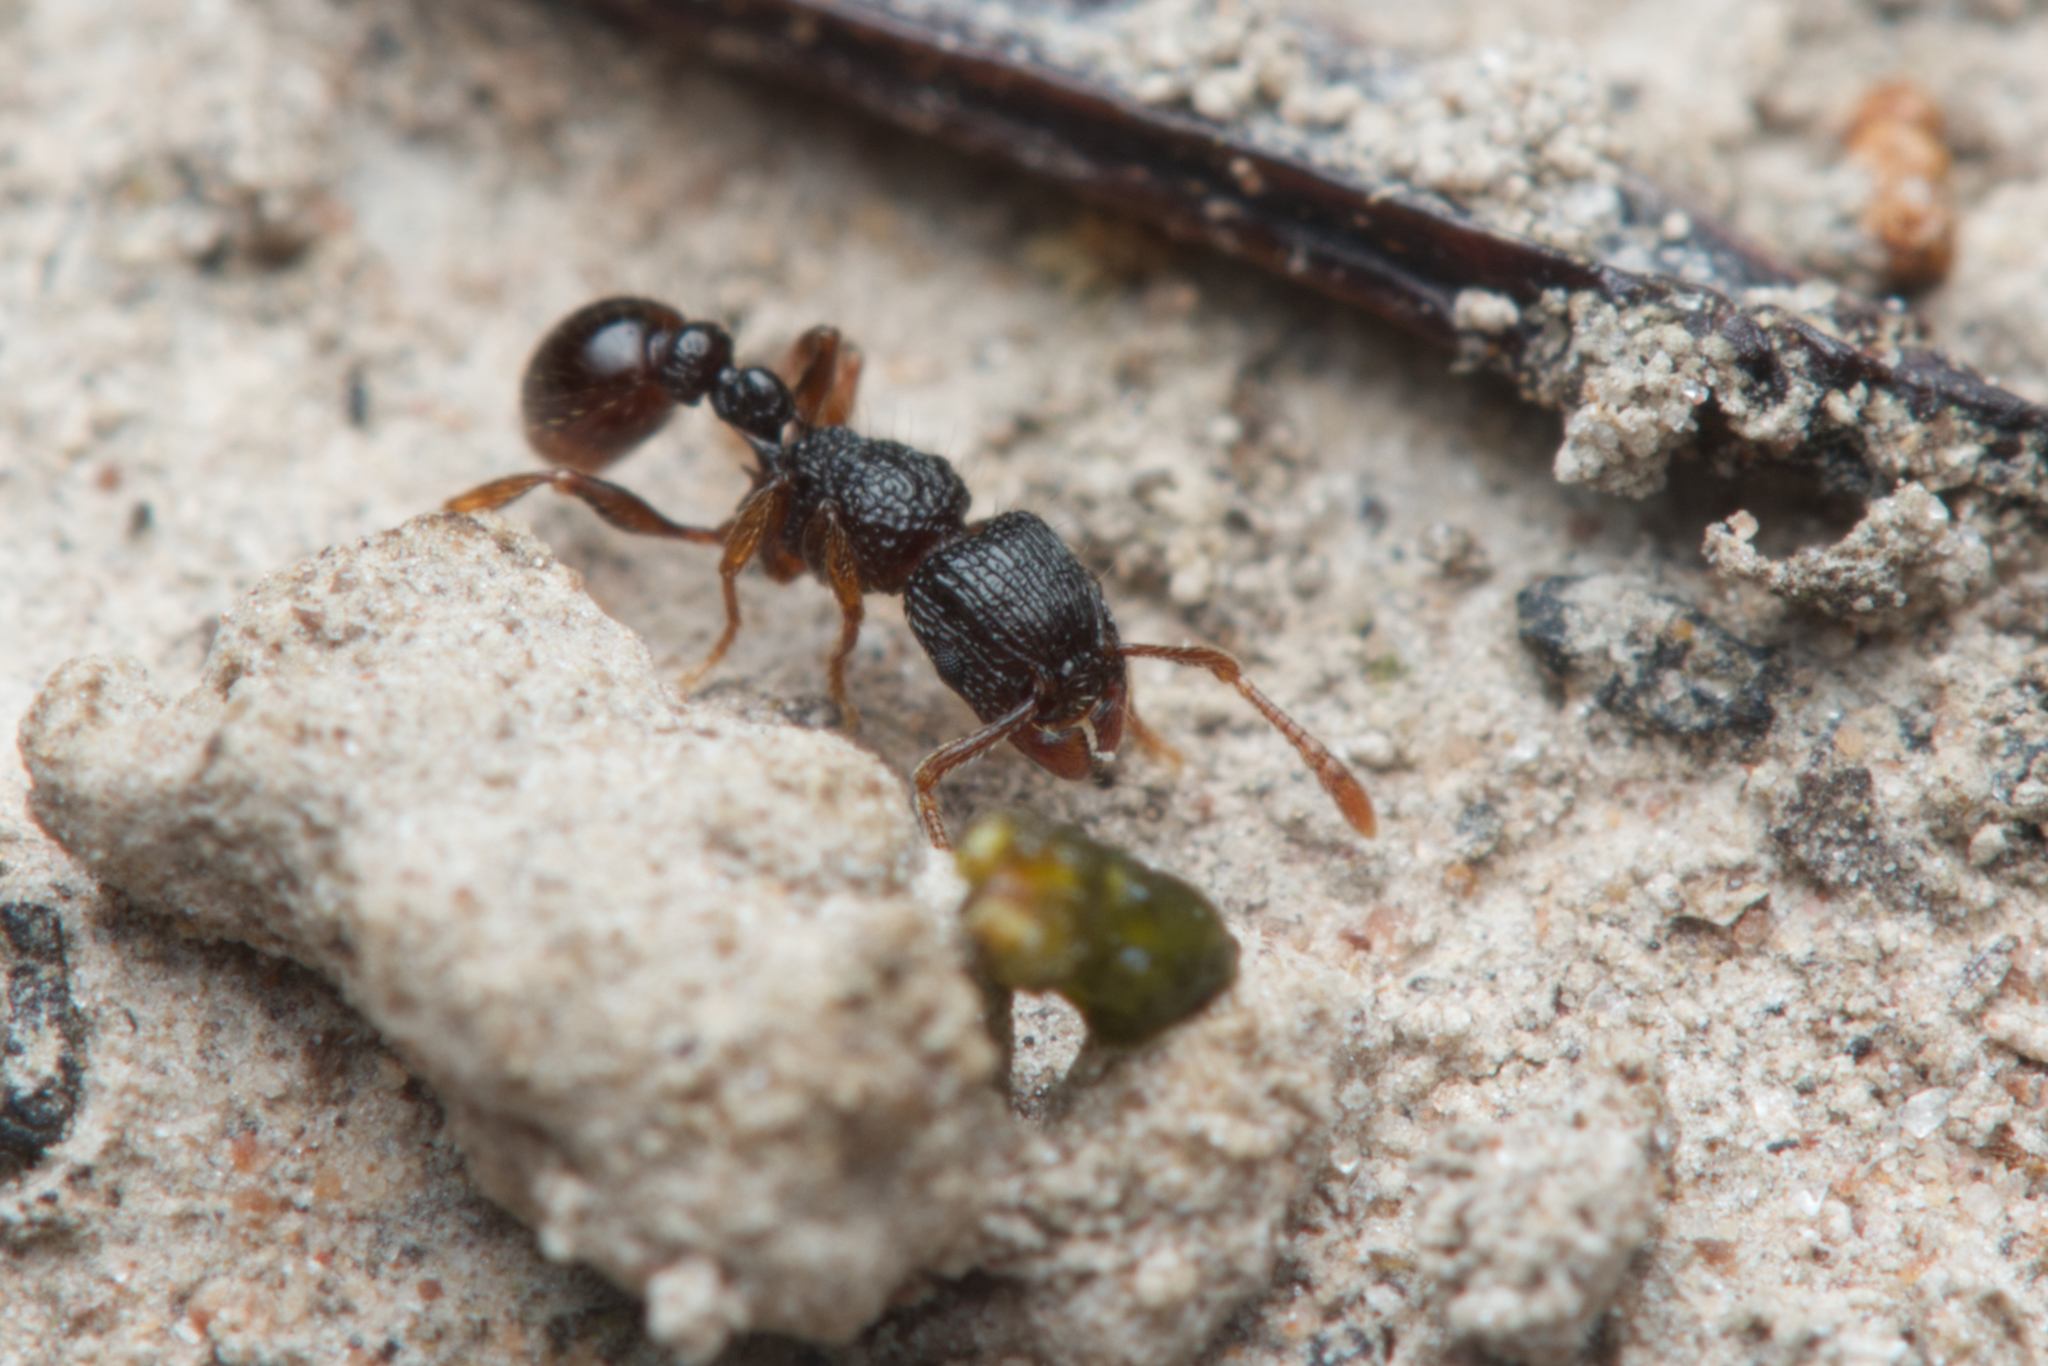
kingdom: Animalia
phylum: Arthropoda
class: Insecta
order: Hymenoptera
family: Formicidae
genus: Tetramorium
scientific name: Tetramorium confusum
